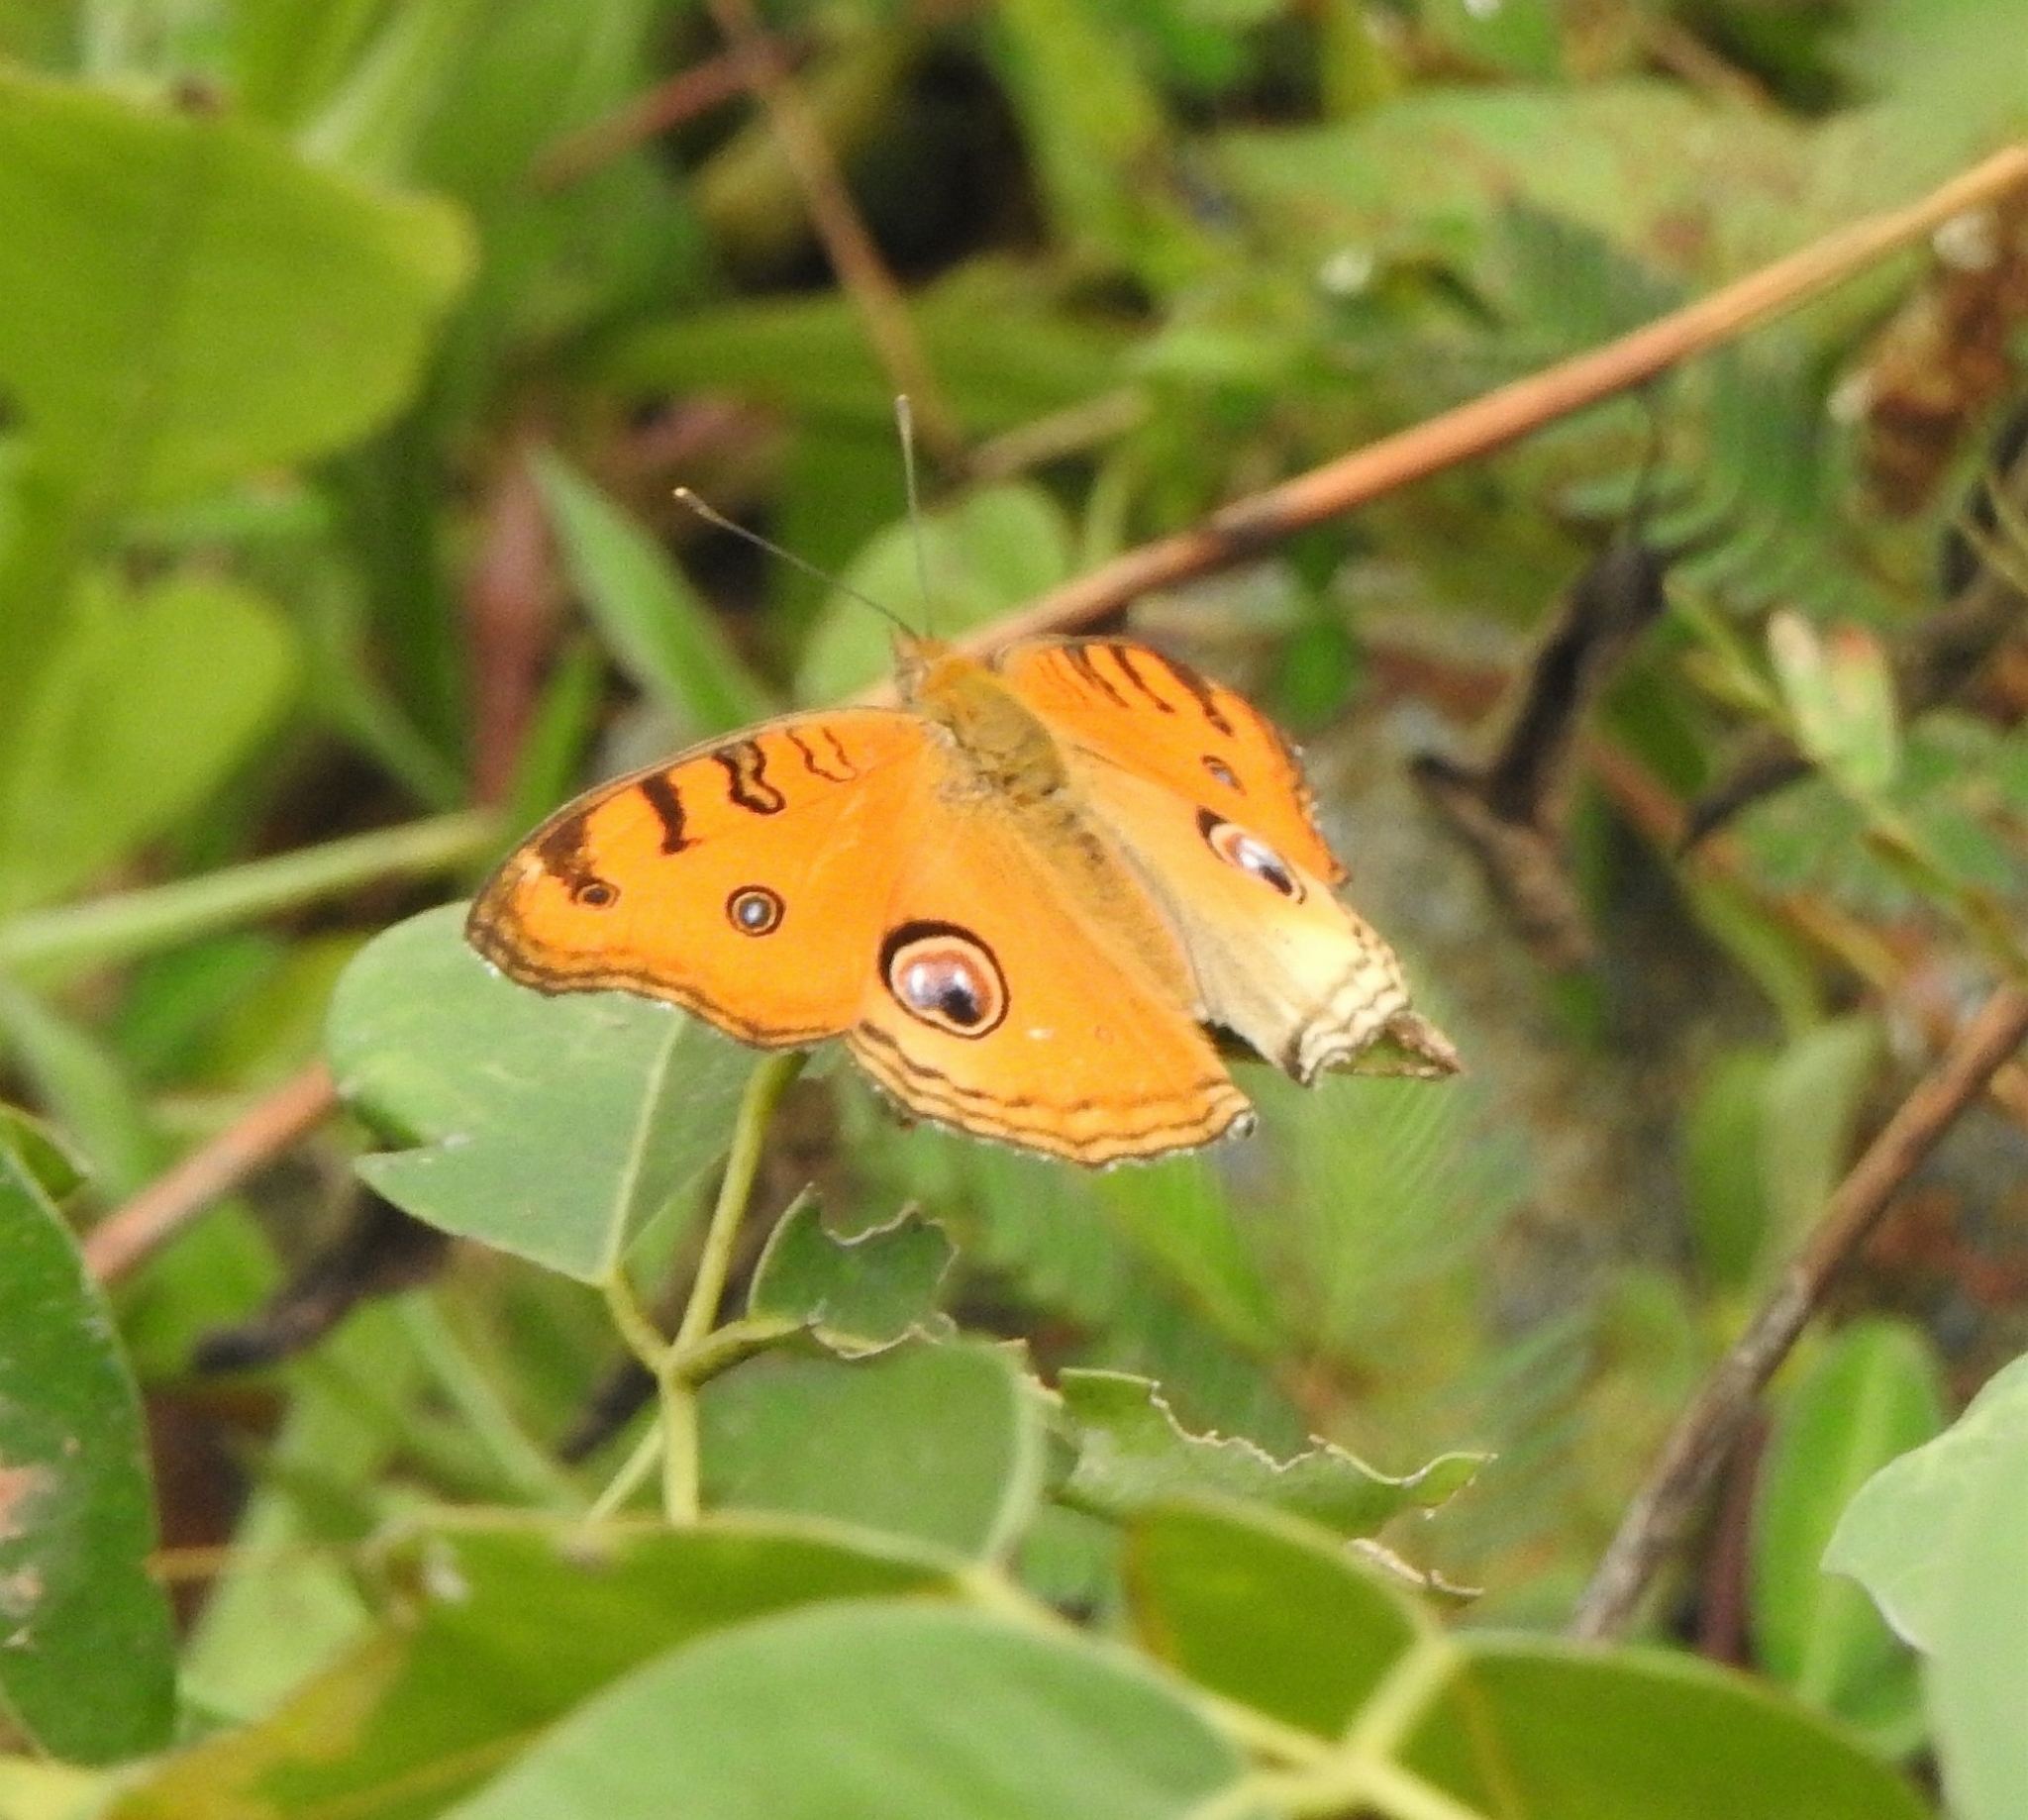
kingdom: Animalia
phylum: Arthropoda
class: Insecta
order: Lepidoptera
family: Nymphalidae
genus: Junonia
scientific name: Junonia almana
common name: Peacock pansy
